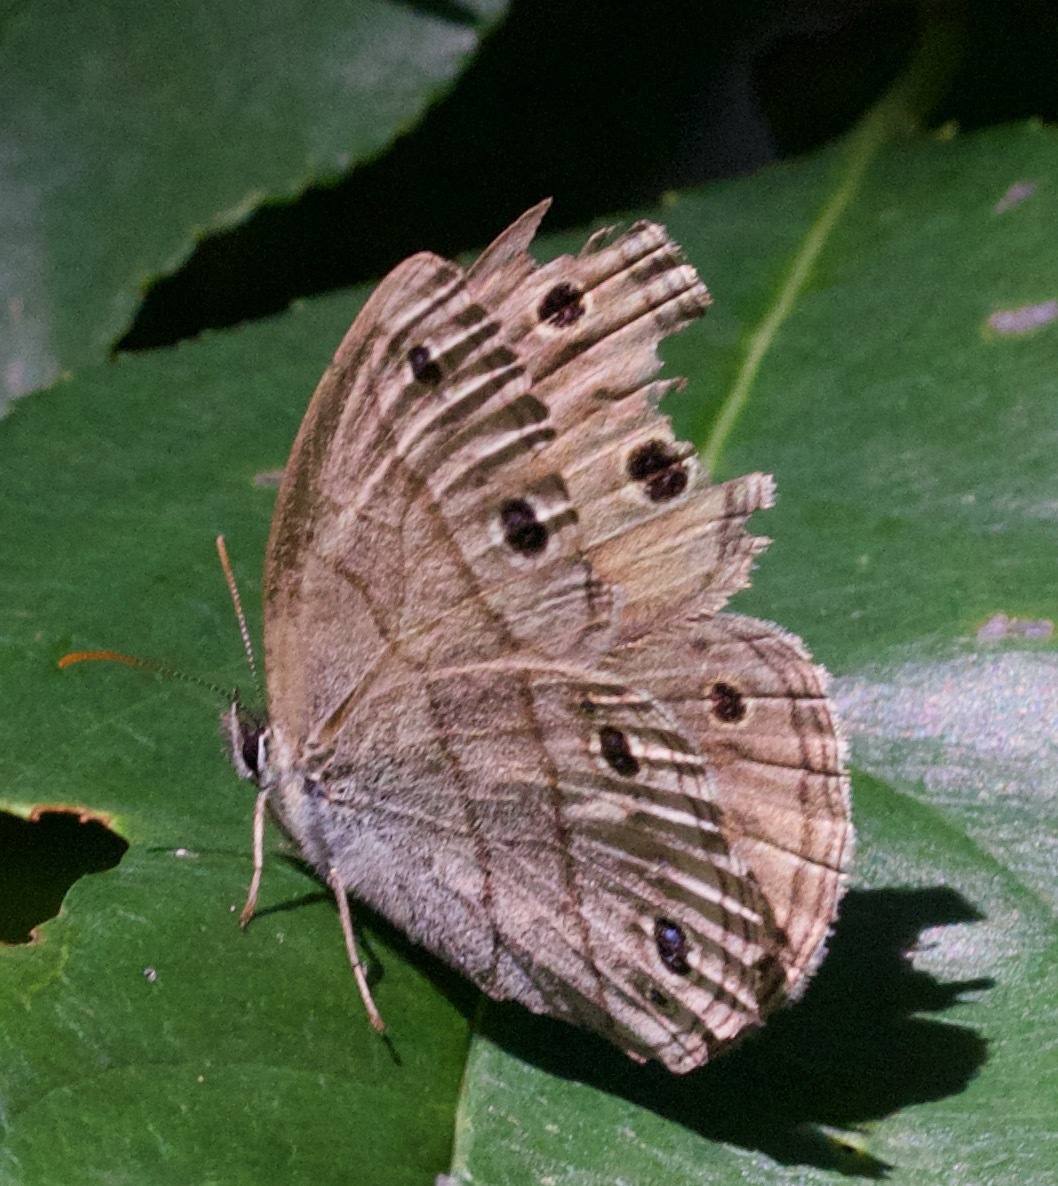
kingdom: Animalia
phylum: Arthropoda
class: Insecta
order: Lepidoptera
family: Nymphalidae
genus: Euptychia
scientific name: Euptychia cymela
